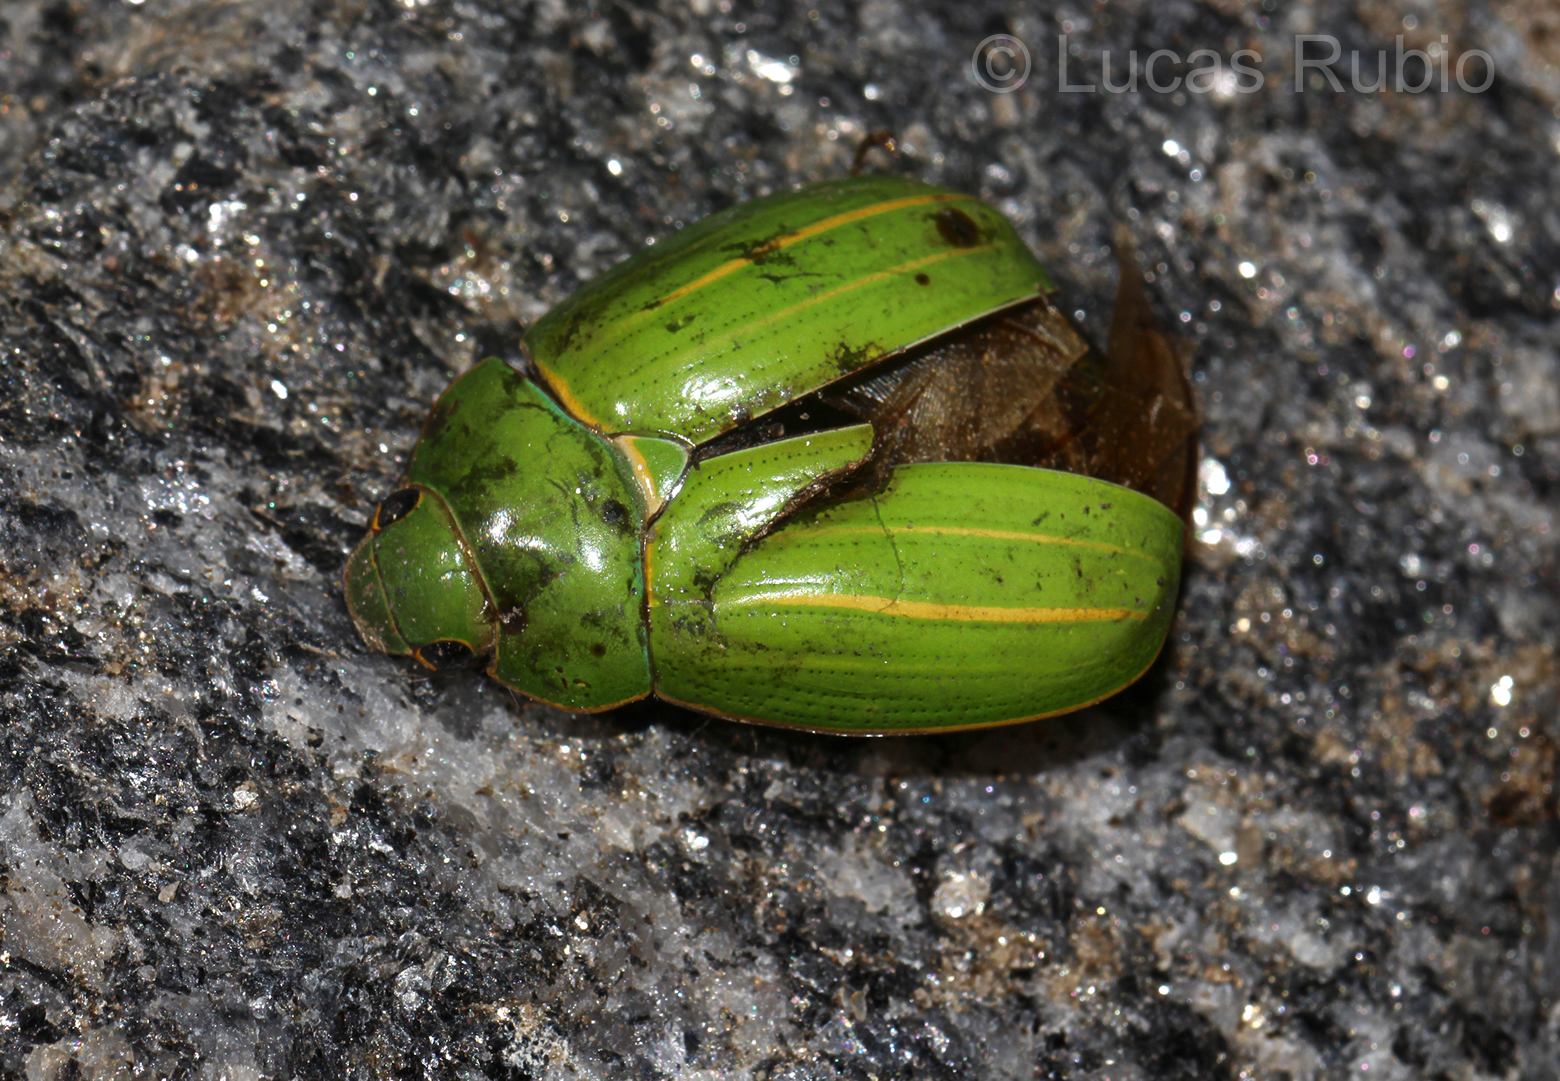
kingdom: Animalia
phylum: Arthropoda
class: Insecta
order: Coleoptera
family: Scarabaeidae
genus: Platycoelia
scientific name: Platycoelia inflata
